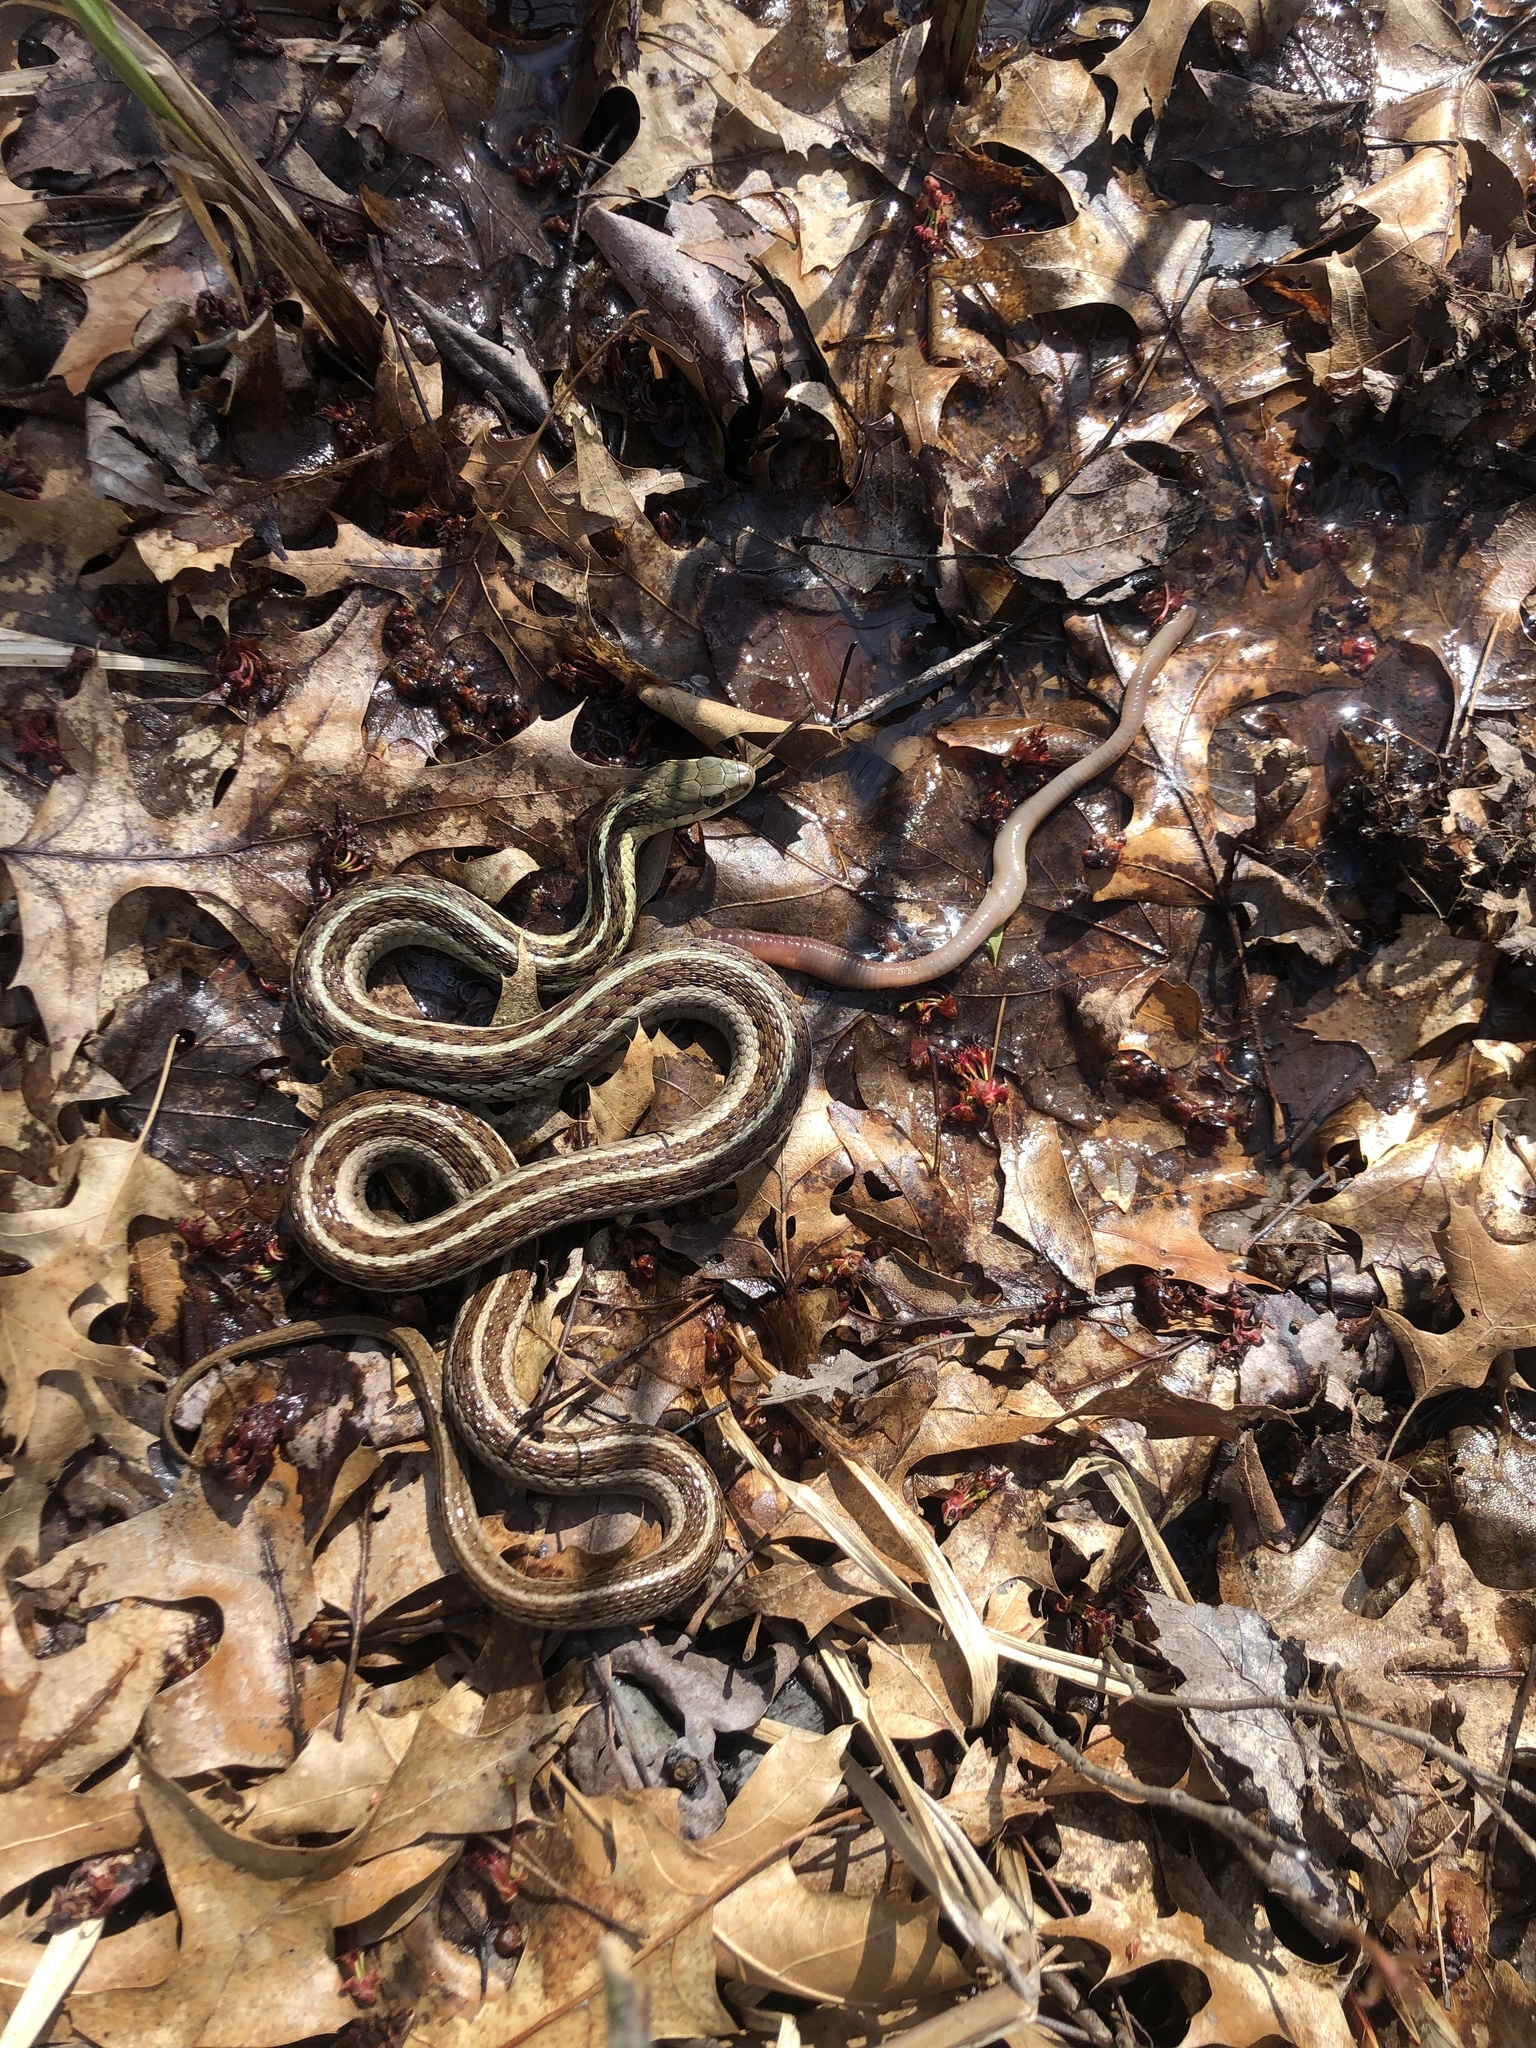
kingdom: Animalia
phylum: Chordata
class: Squamata
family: Colubridae
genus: Thamnophis
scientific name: Thamnophis sirtalis
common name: Common garter snake
